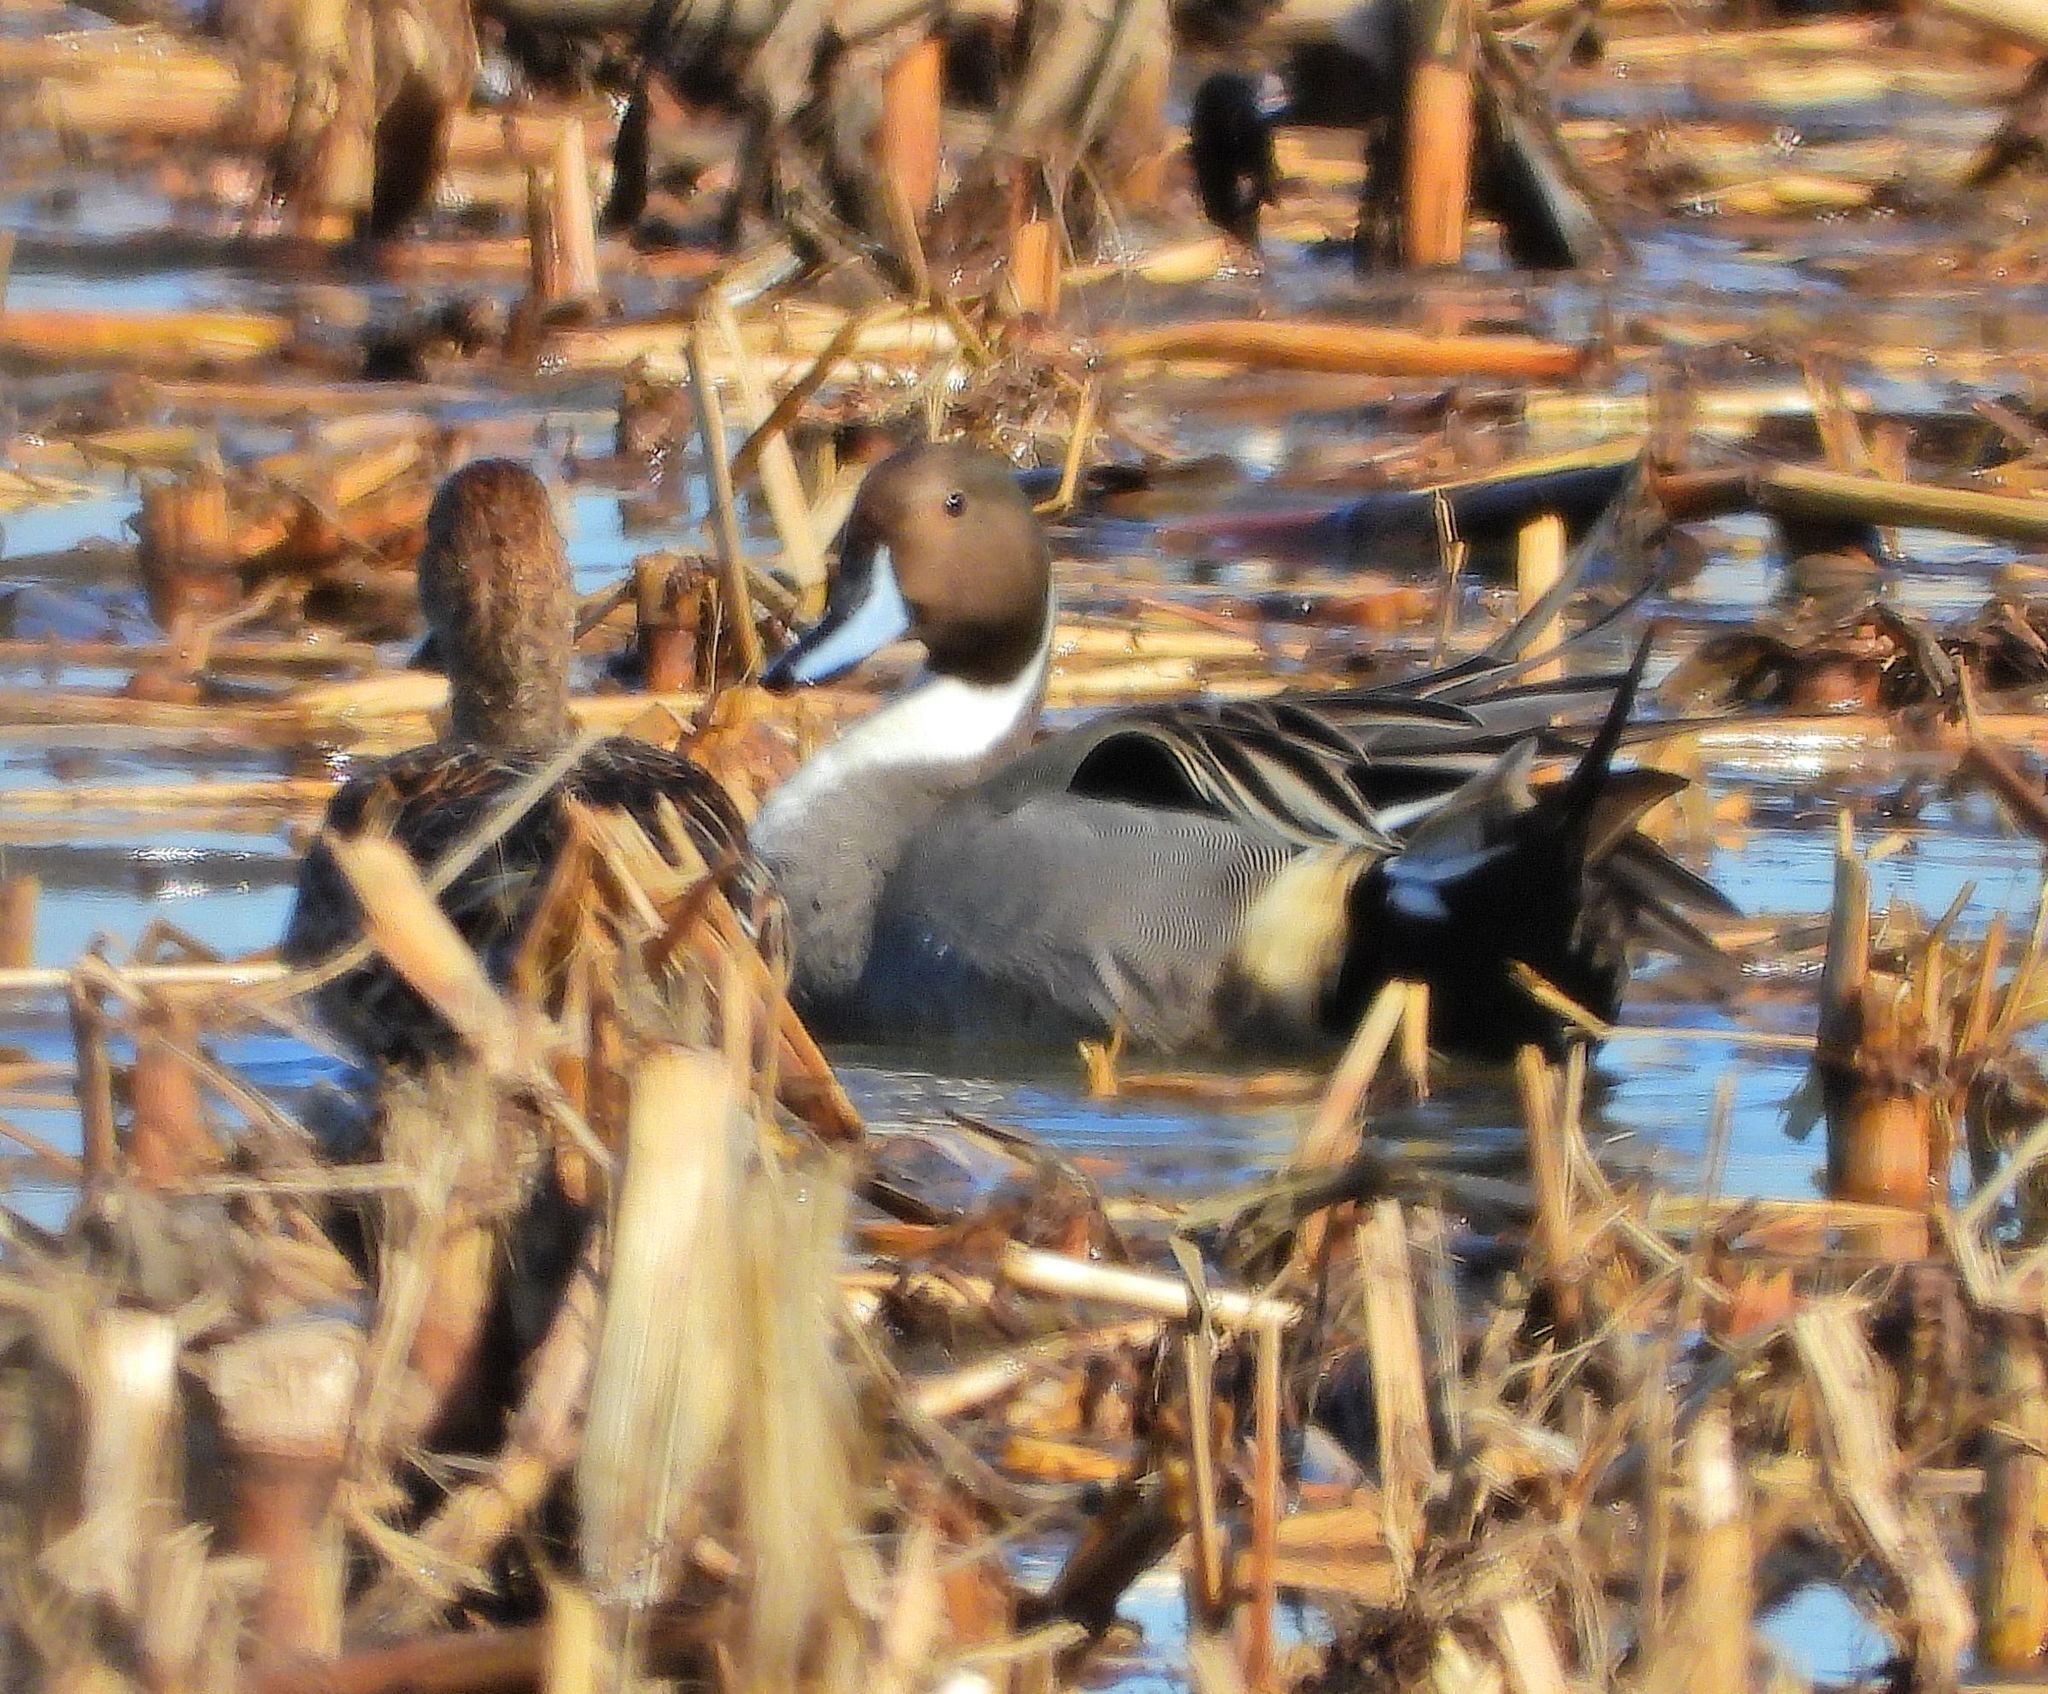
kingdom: Animalia
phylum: Chordata
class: Aves
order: Anseriformes
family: Anatidae
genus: Anas
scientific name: Anas acuta
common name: Northern pintail
